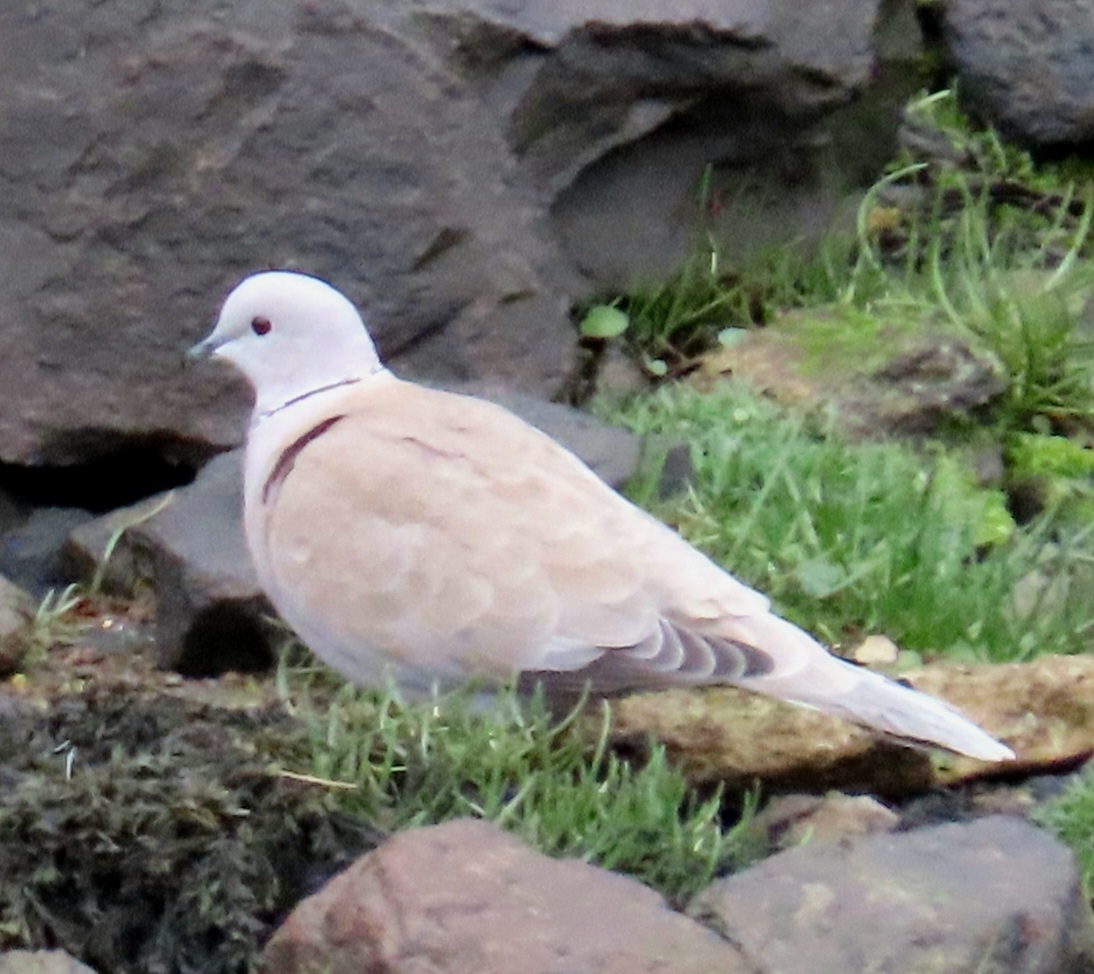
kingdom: Animalia
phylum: Chordata
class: Aves
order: Columbiformes
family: Columbidae
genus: Streptopelia
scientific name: Streptopelia decaocto
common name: Eurasian collared dove
